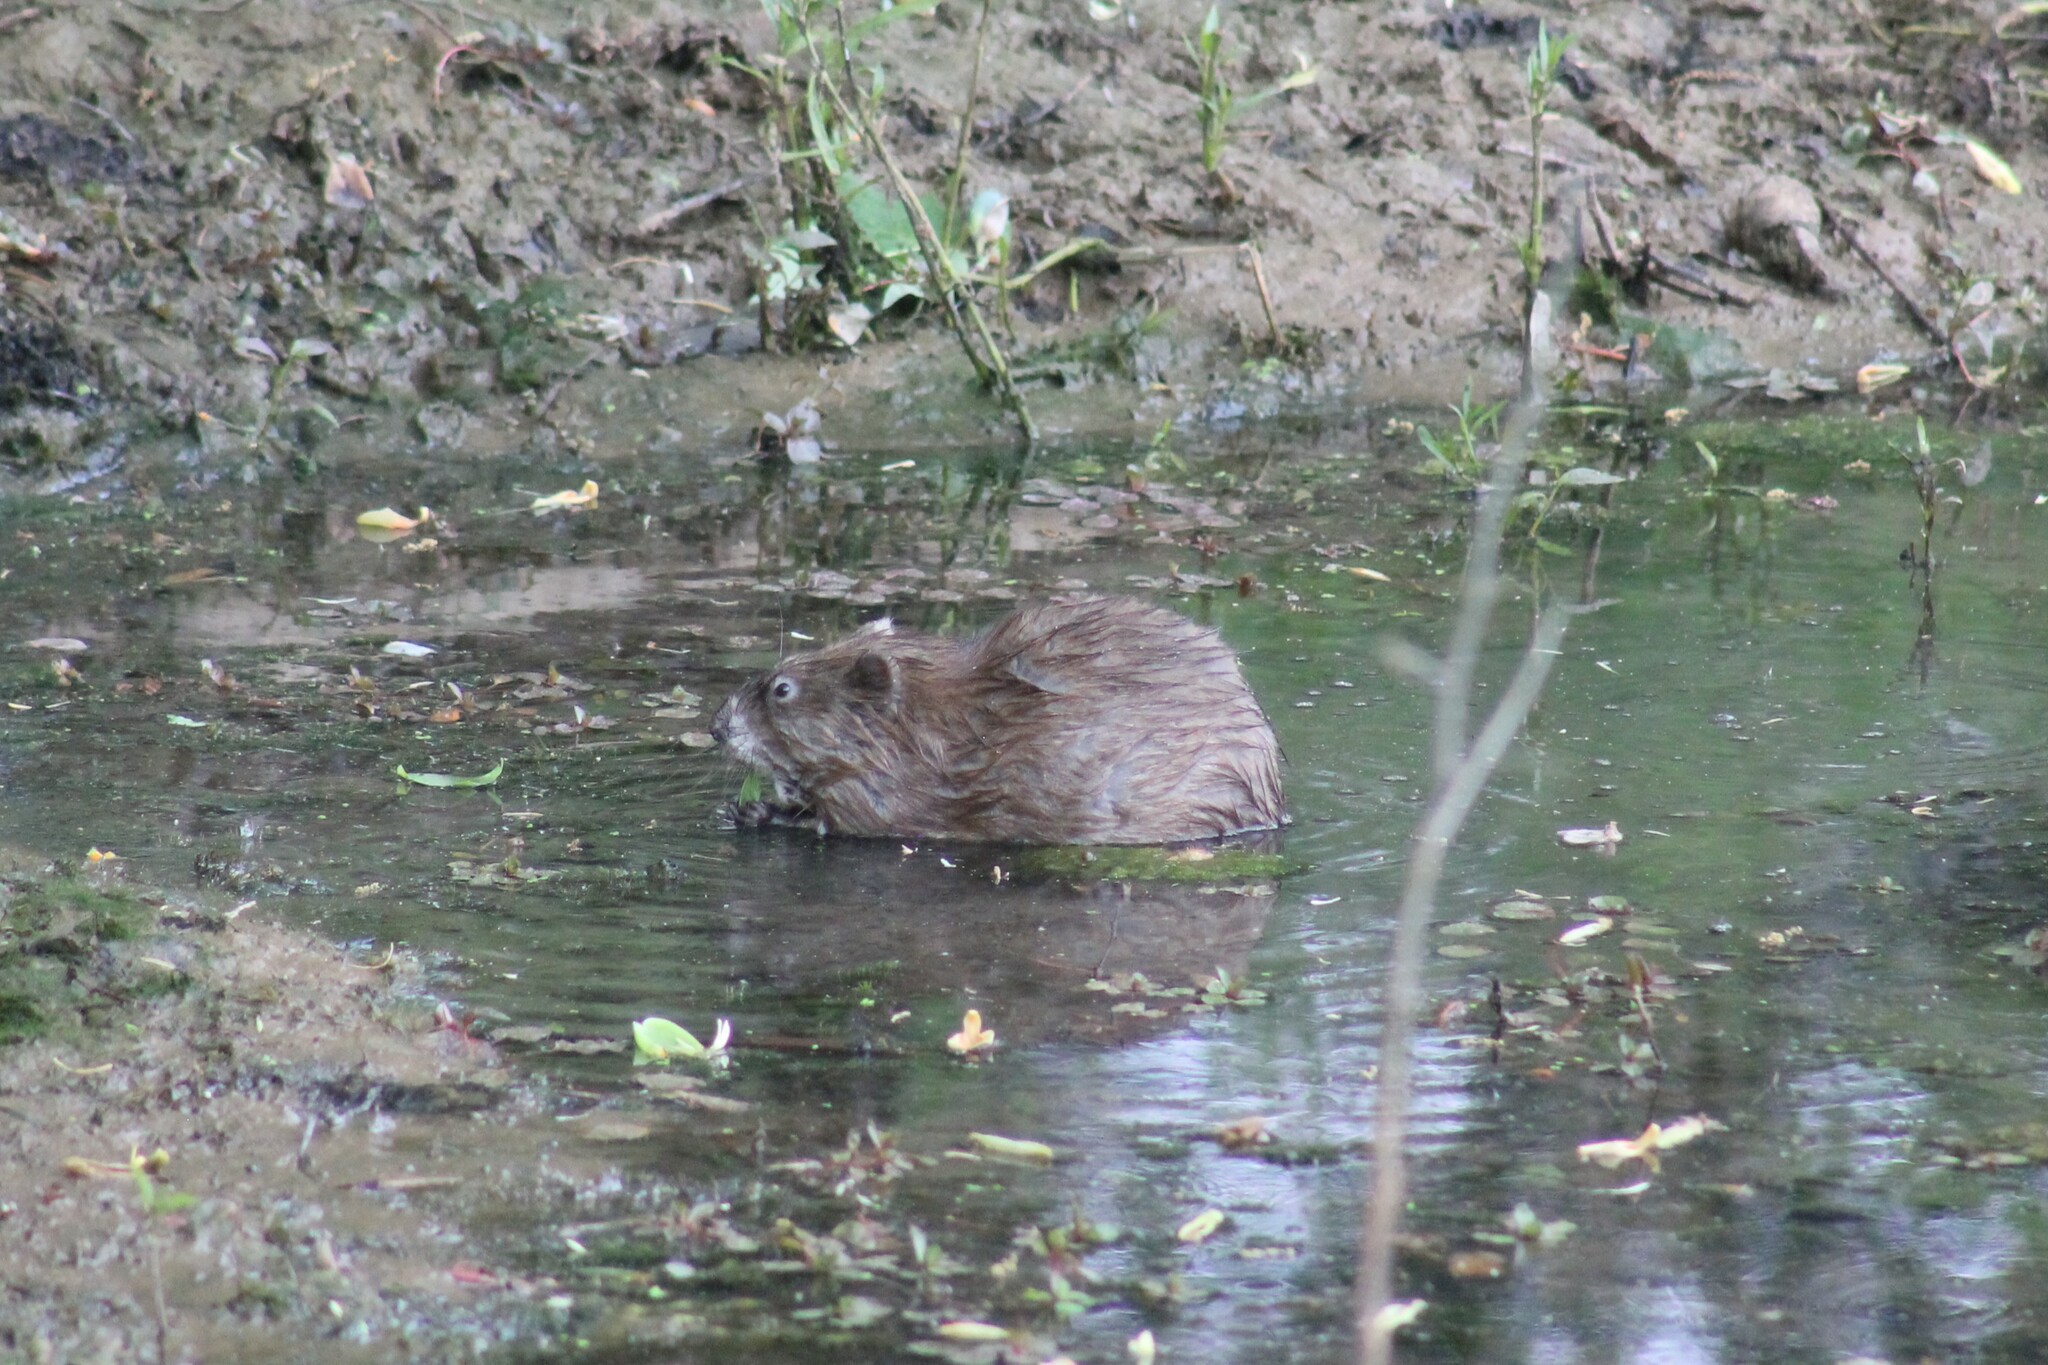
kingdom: Animalia
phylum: Chordata
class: Mammalia
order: Rodentia
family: Cricetidae
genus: Ondatra
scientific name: Ondatra zibethicus
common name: Muskrat
